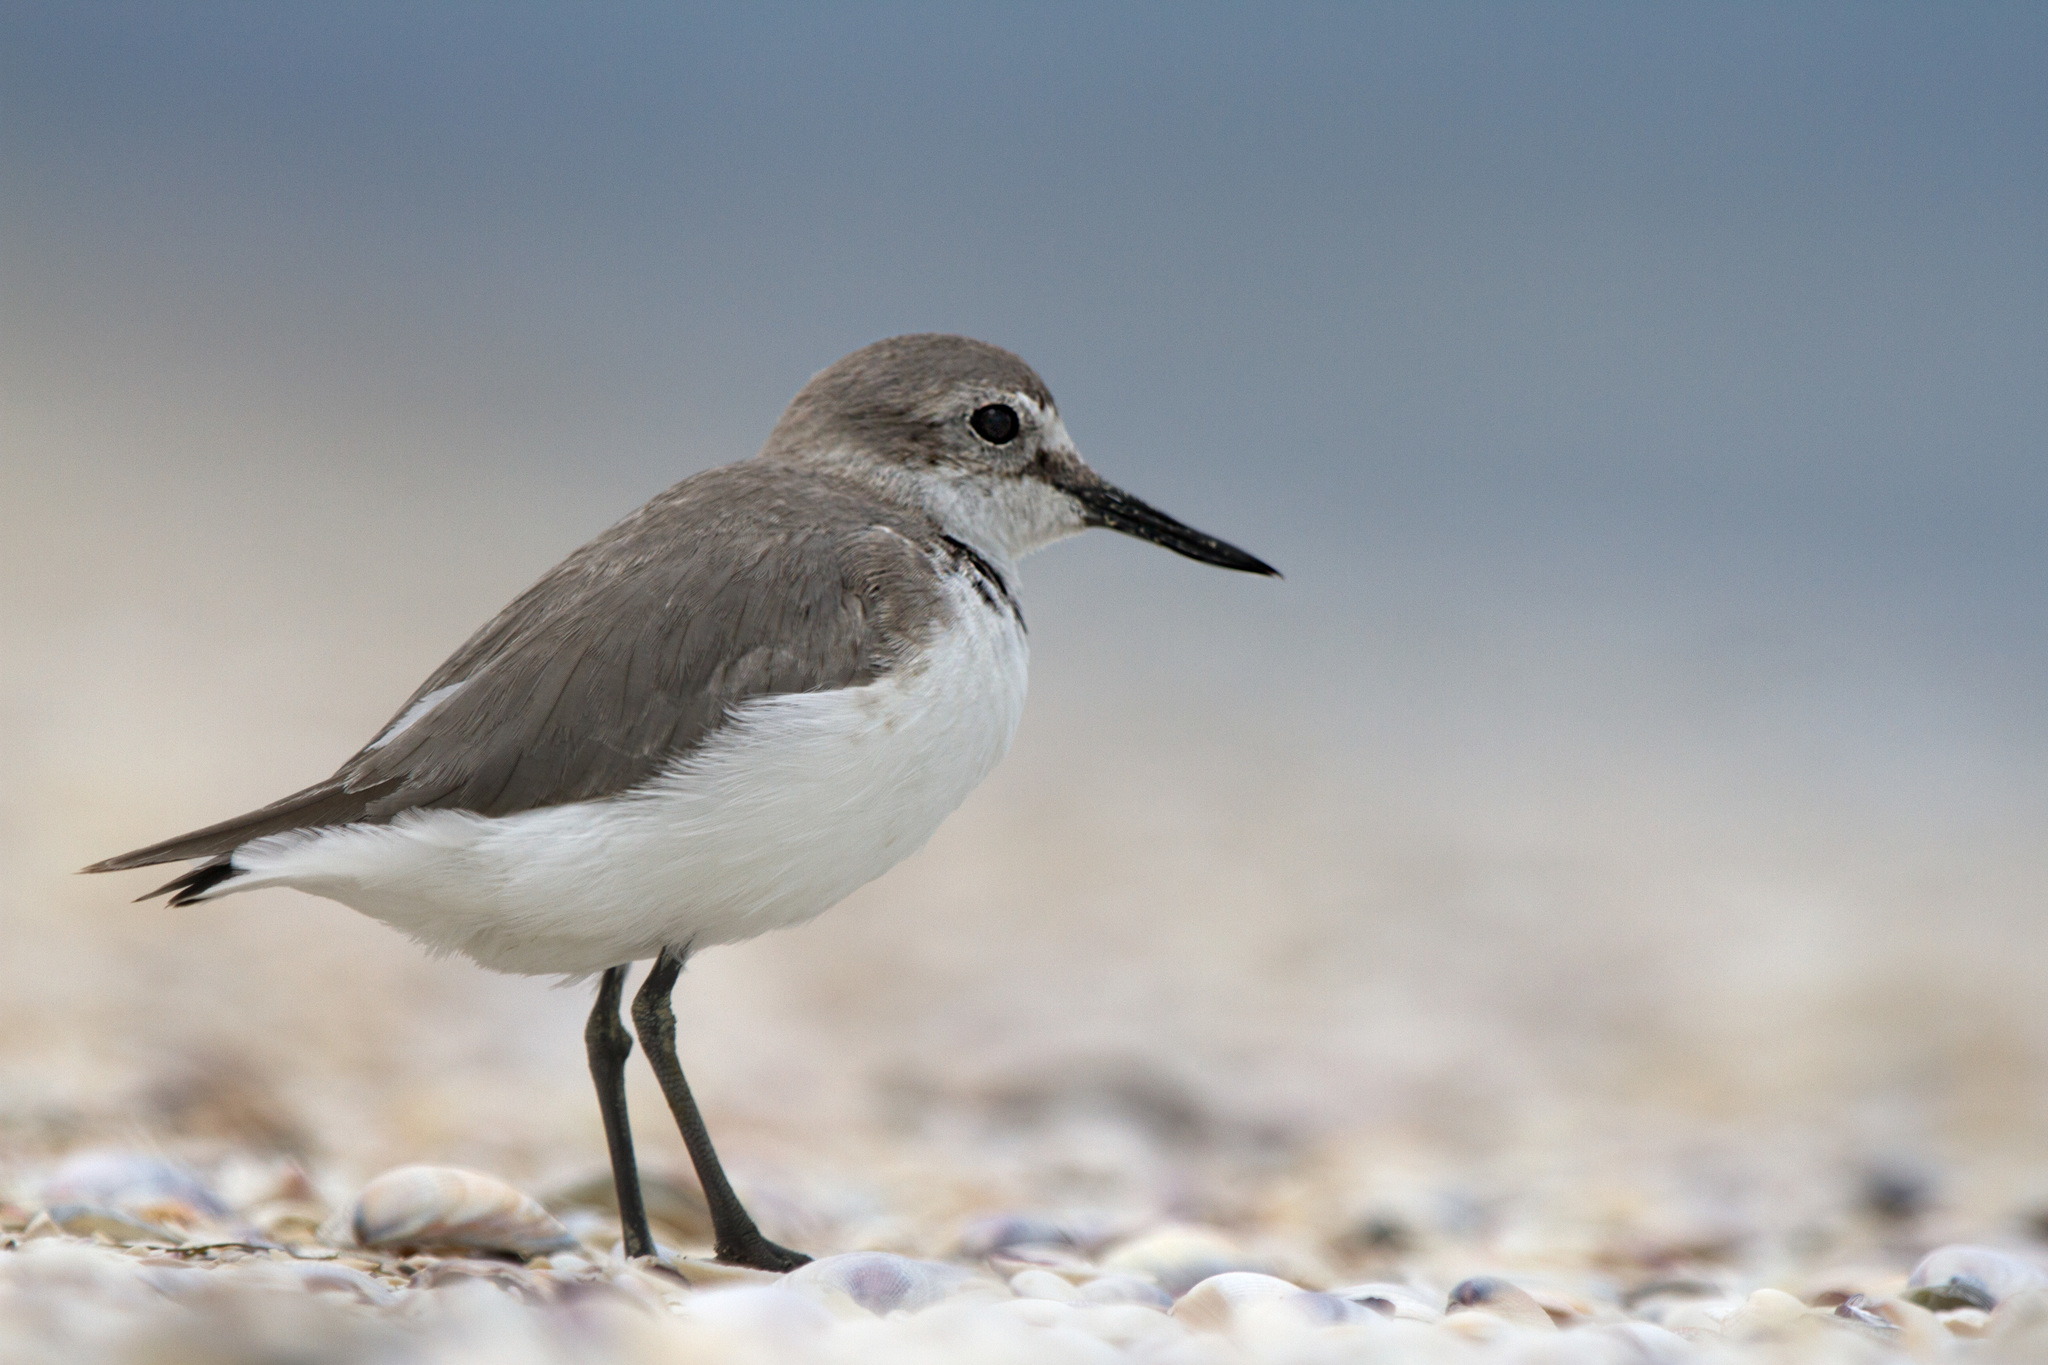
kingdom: Animalia
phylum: Chordata
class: Aves
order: Charadriiformes
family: Charadriidae
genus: Anarhynchus
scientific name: Anarhynchus frontalis
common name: Wrybill
